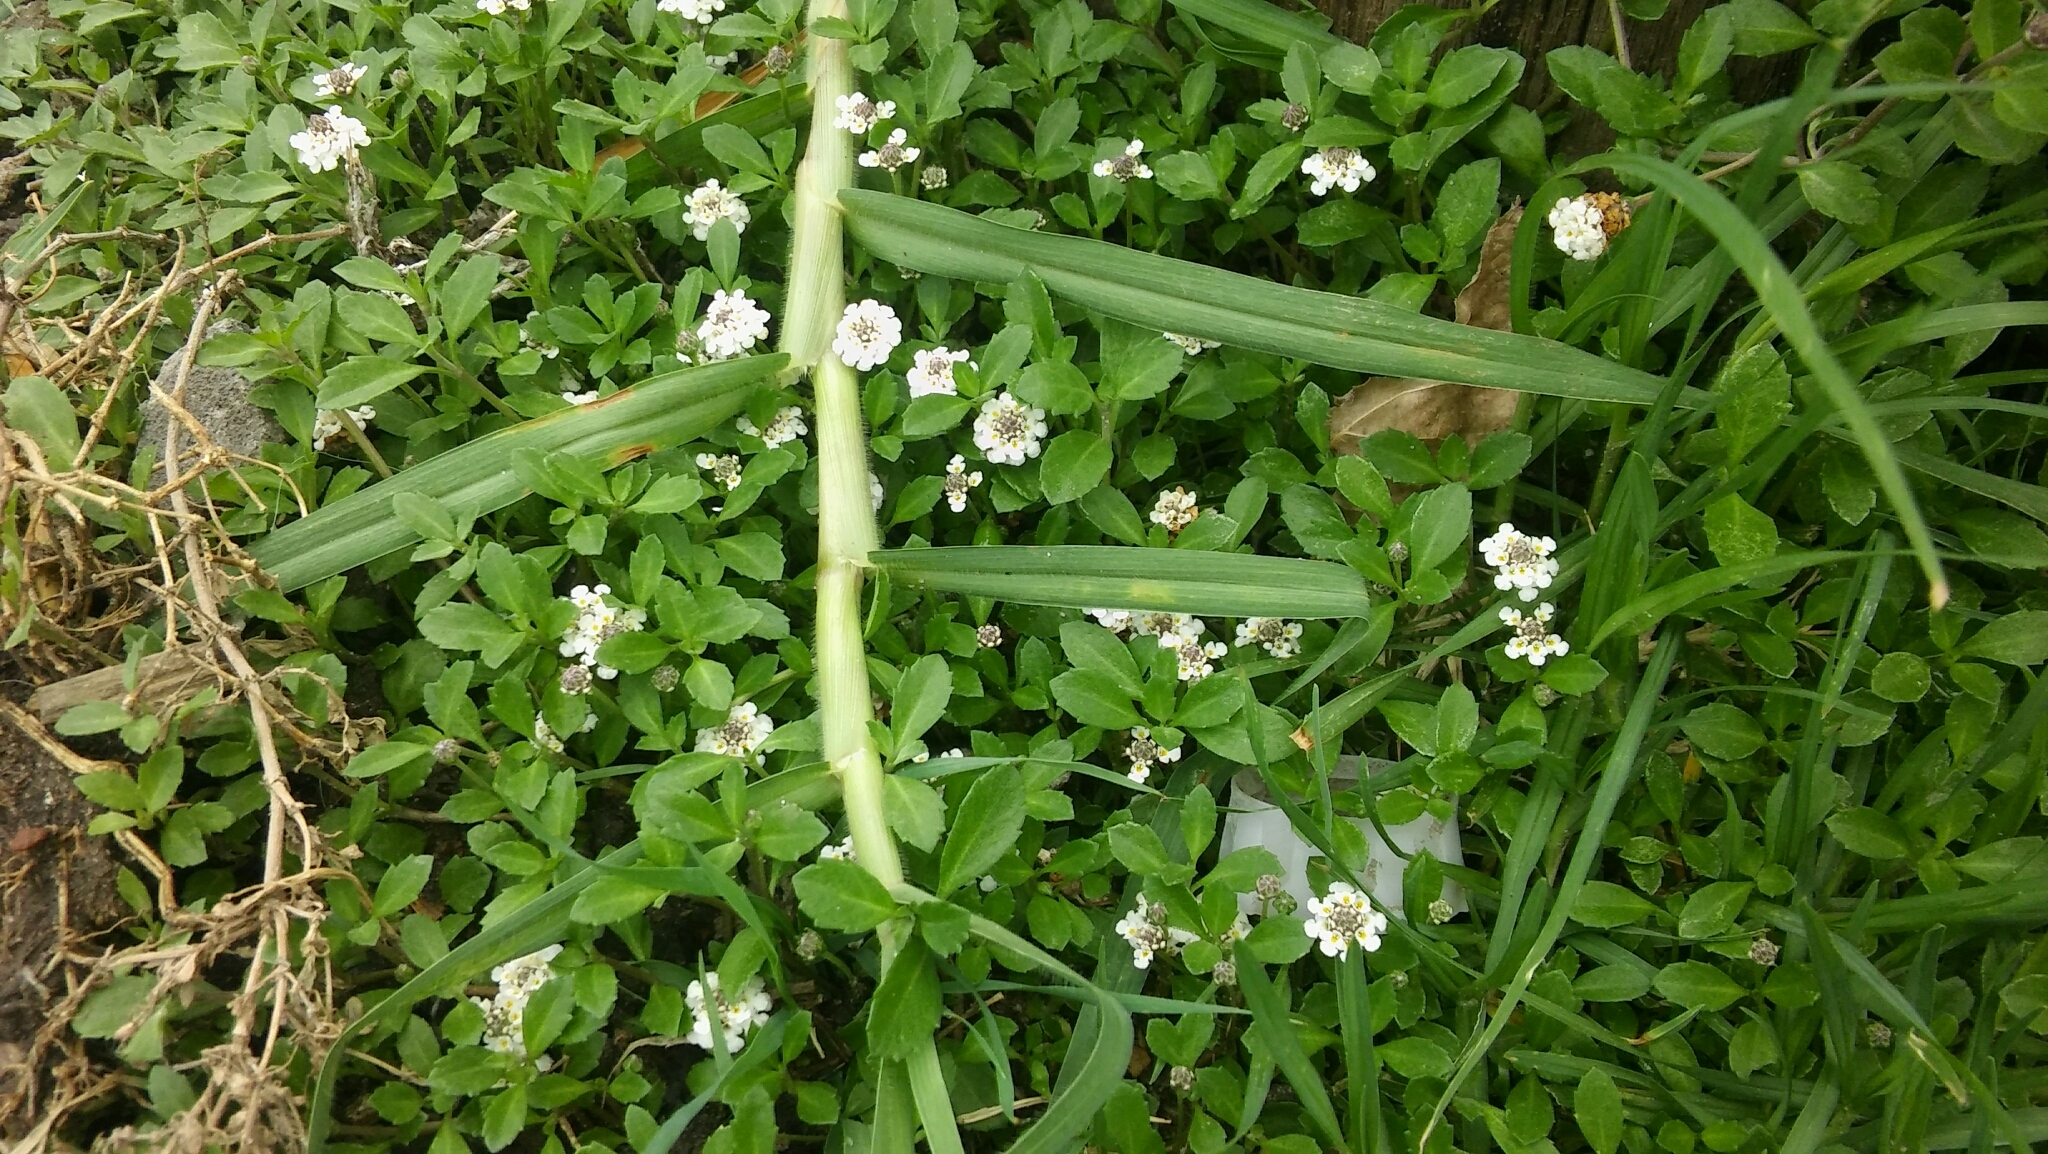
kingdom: Plantae
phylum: Tracheophyta
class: Magnoliopsida
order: Lamiales
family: Verbenaceae
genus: Phyla
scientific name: Phyla nodiflora
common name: Frogfruit
